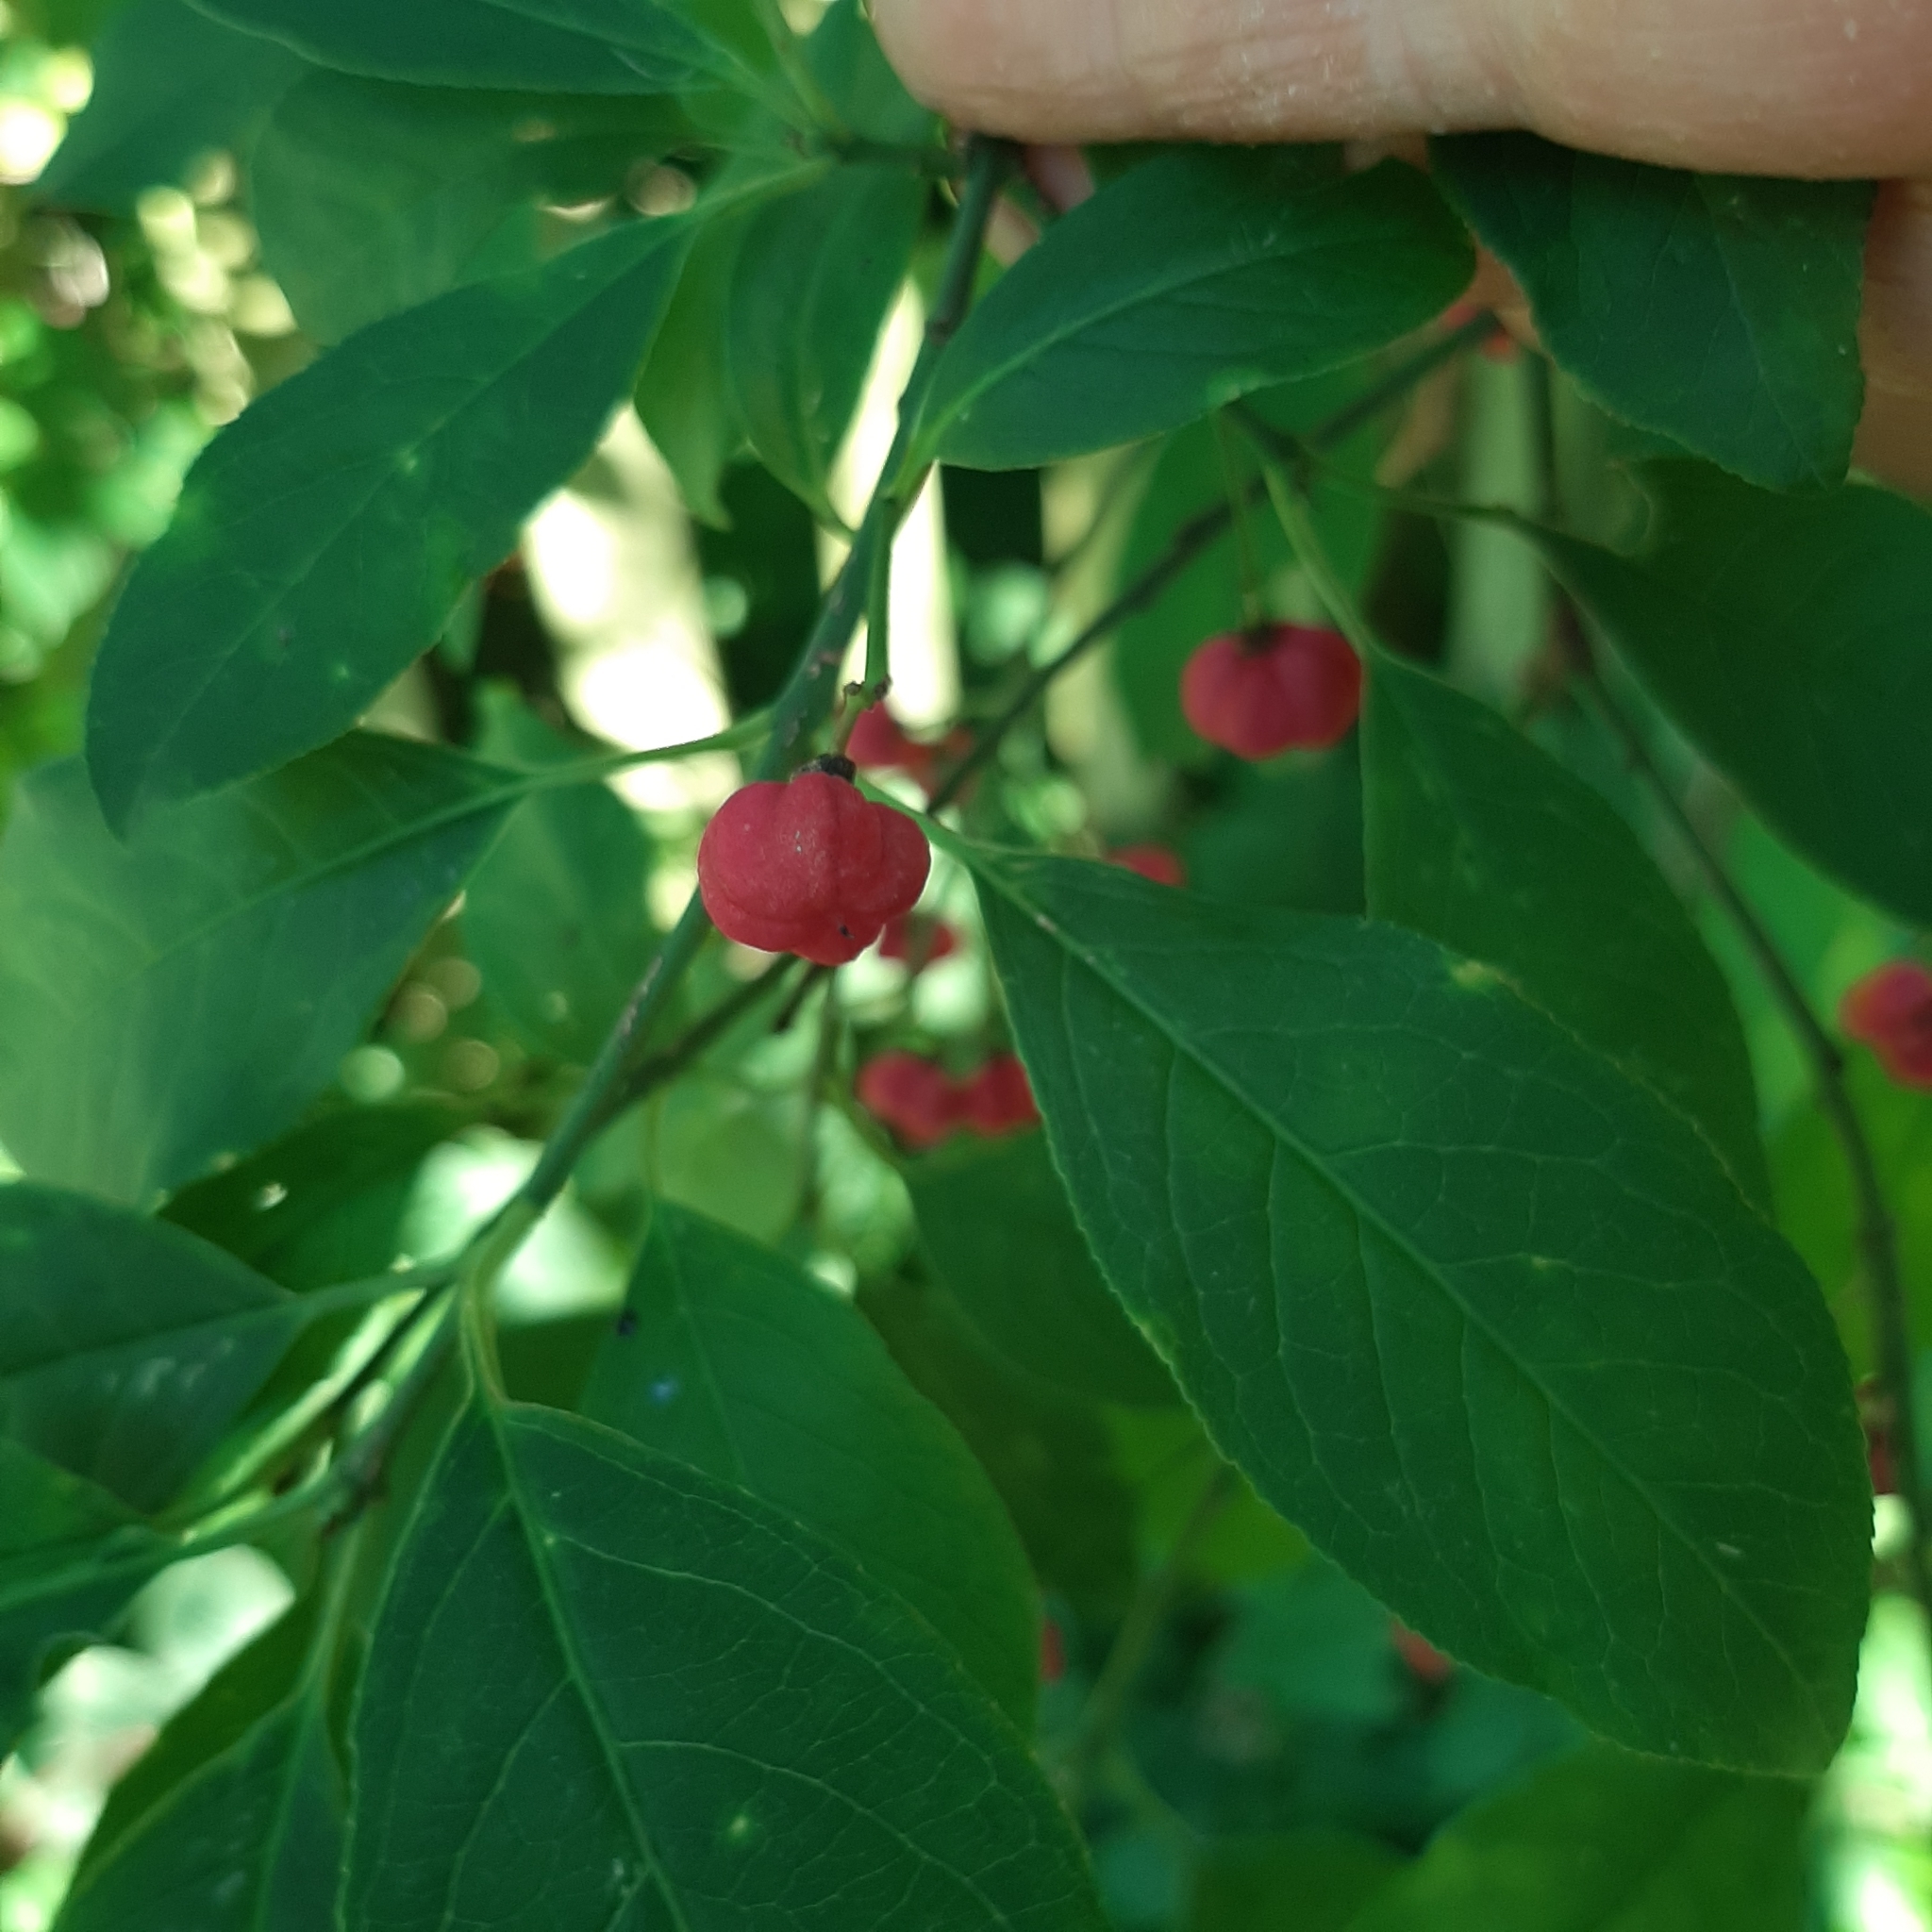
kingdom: Plantae
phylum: Tracheophyta
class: Magnoliopsida
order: Celastrales
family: Celastraceae
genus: Euonymus
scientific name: Euonymus europaeus
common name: Spindle
